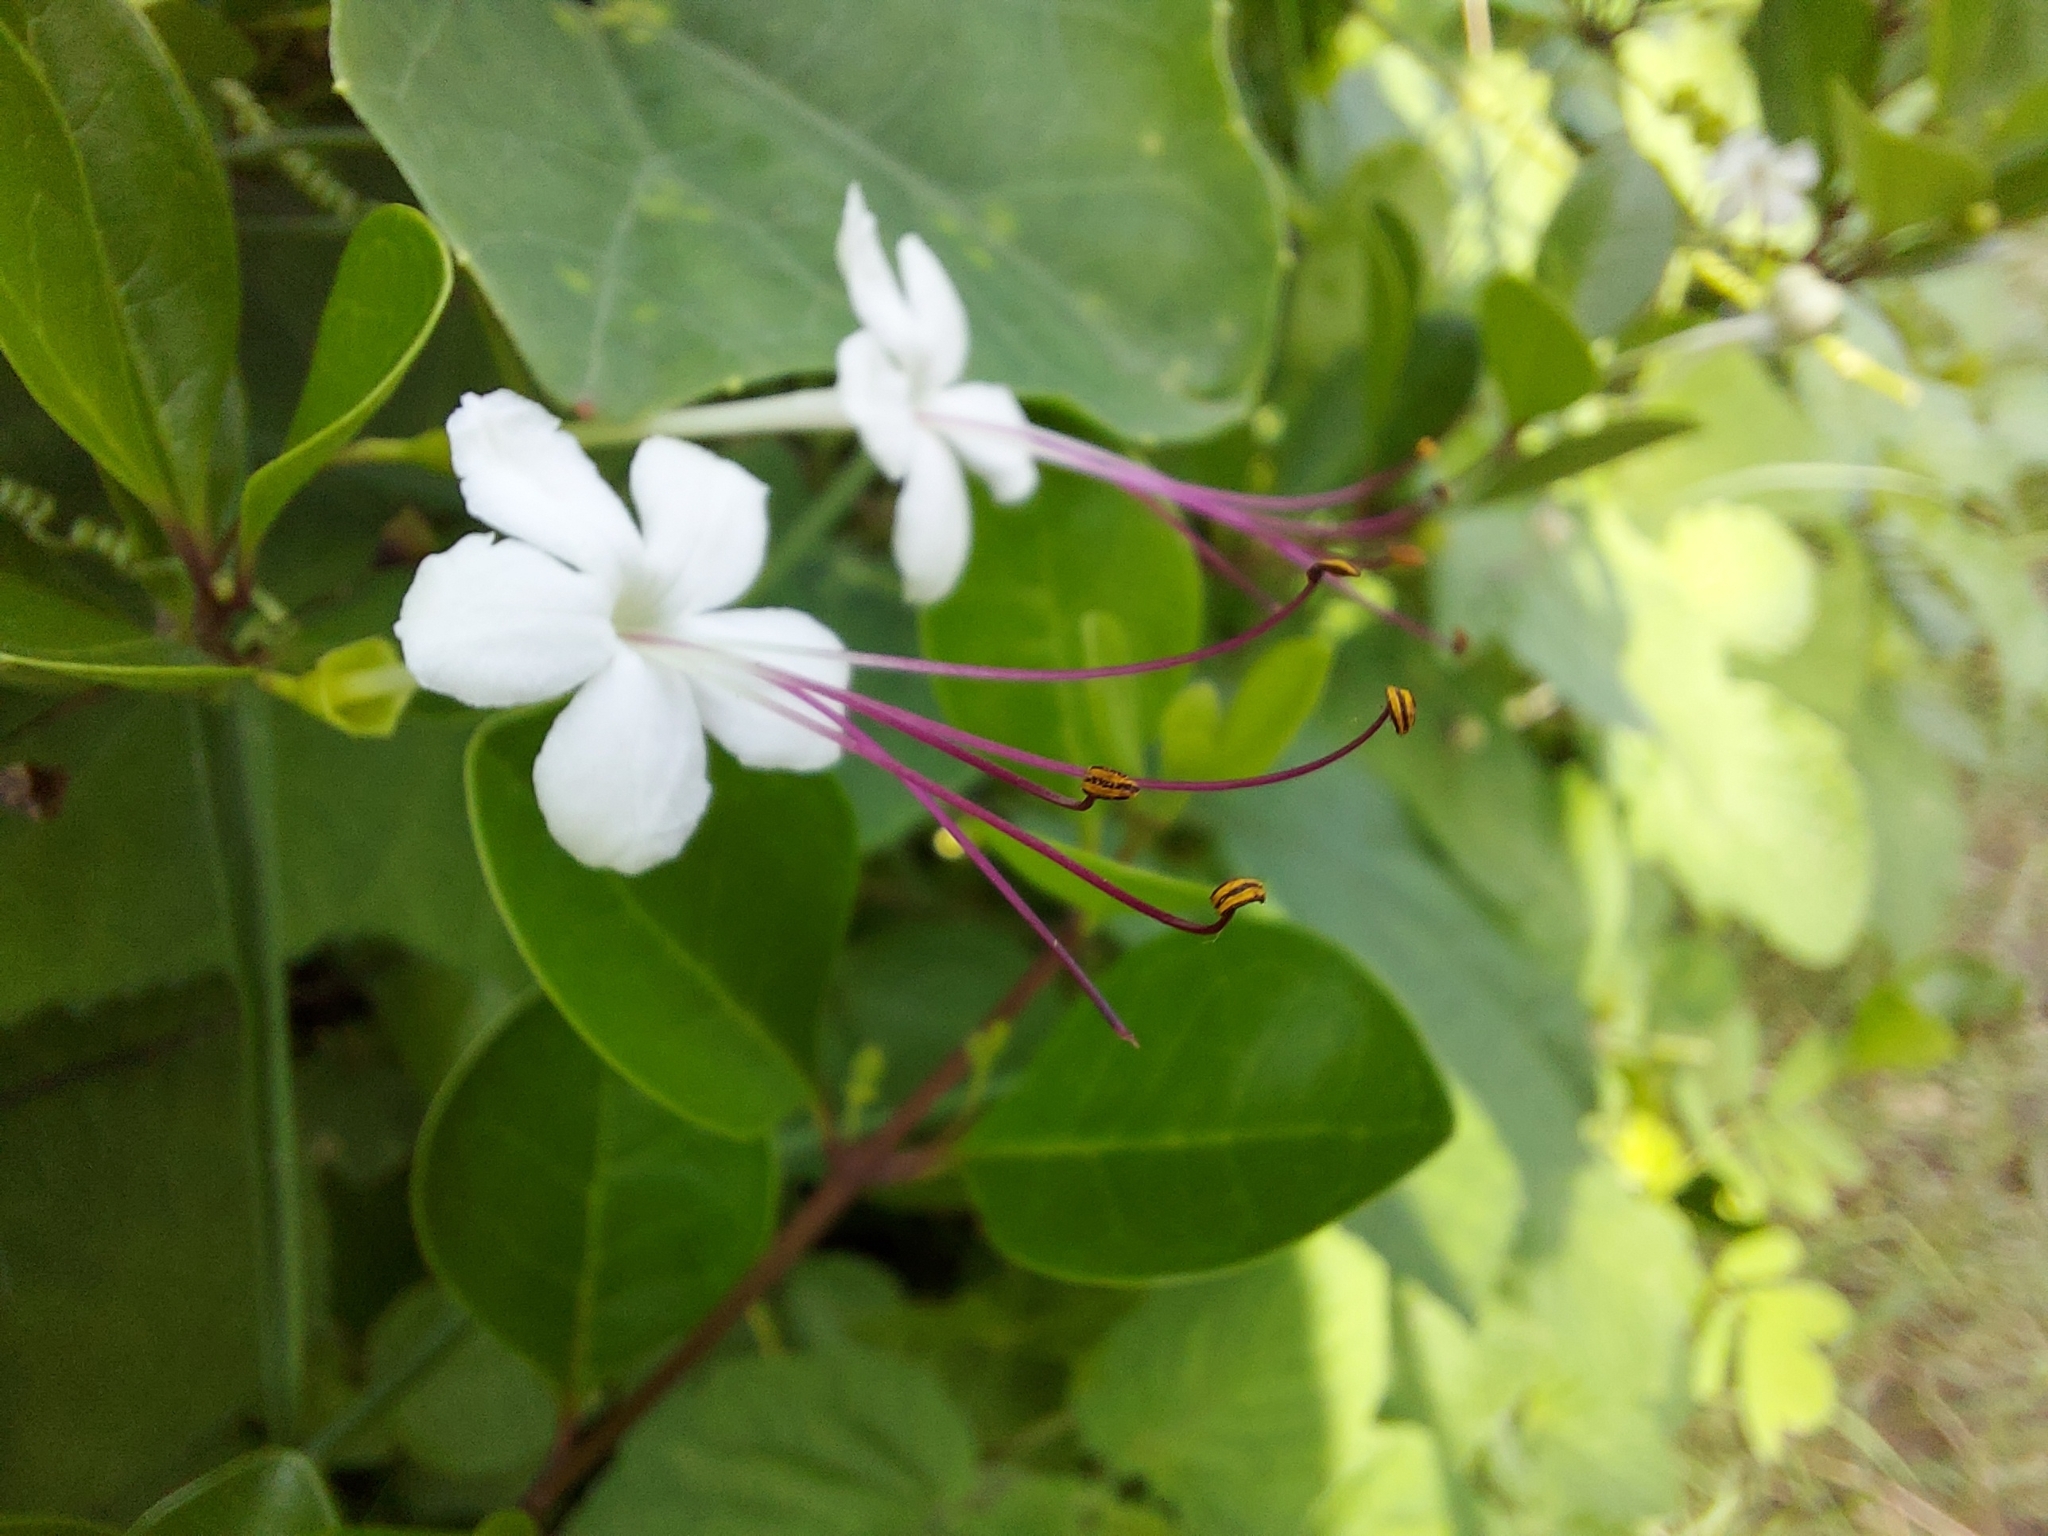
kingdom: Plantae
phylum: Tracheophyta
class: Magnoliopsida
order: Lamiales
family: Lamiaceae
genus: Volkameria
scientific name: Volkameria inermis
